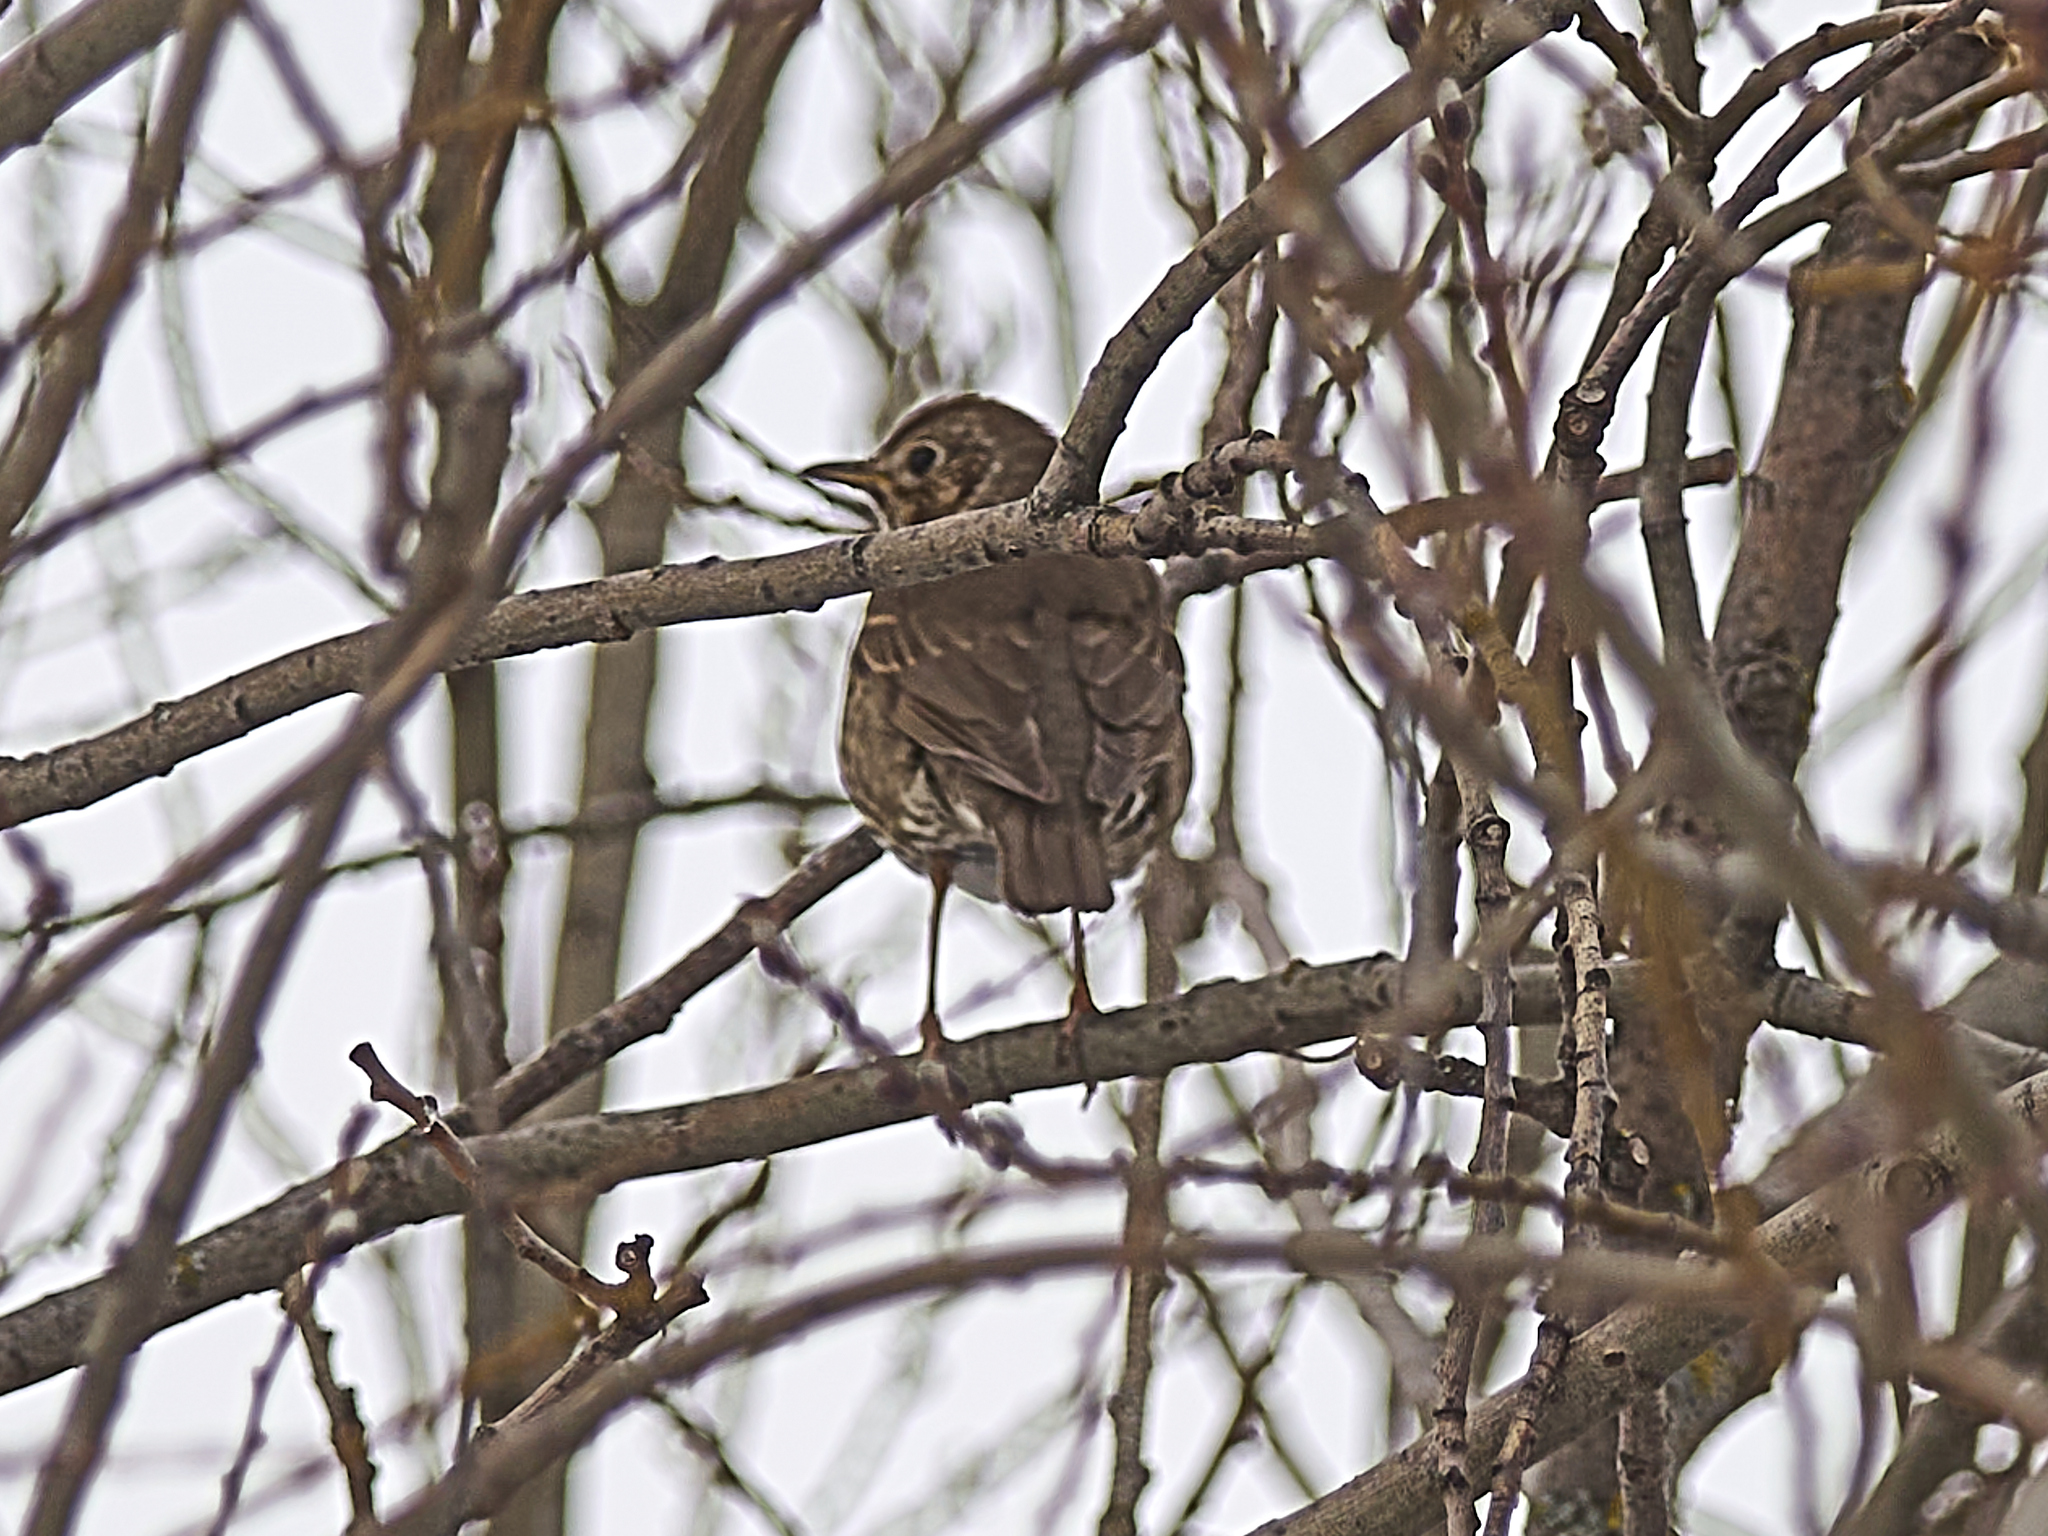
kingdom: Animalia
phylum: Chordata
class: Aves
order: Passeriformes
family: Turdidae
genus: Turdus
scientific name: Turdus philomelos
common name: Song thrush
